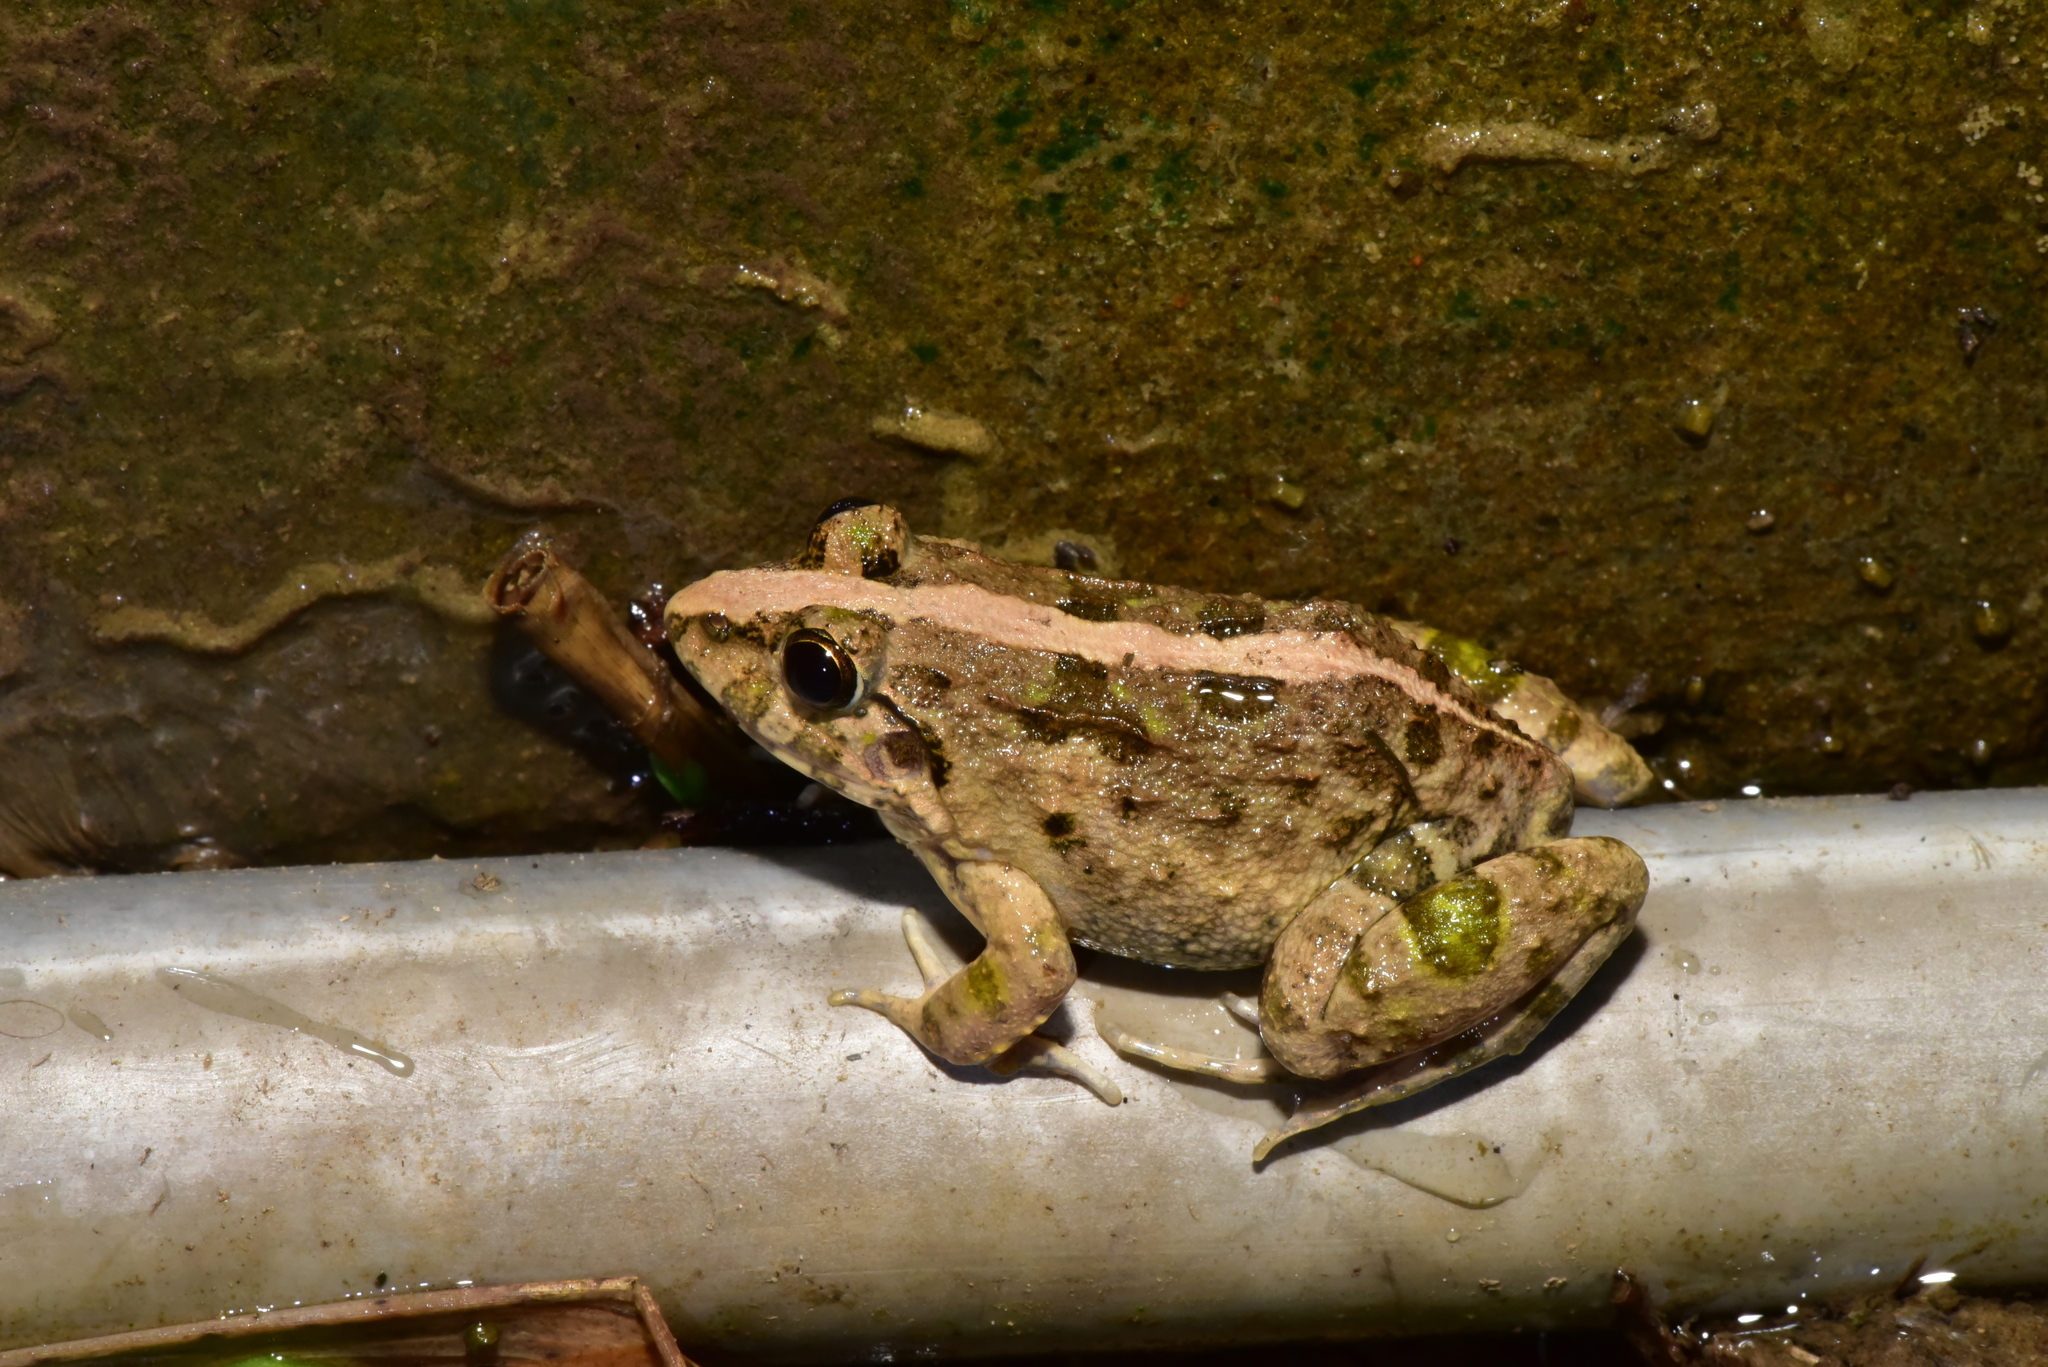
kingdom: Animalia
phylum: Chordata
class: Amphibia
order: Anura
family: Dicroglossidae
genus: Fejervarya
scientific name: Fejervarya limnocharis
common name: Asian grass frog/common pond frog/field frog/grass frog/indian rice frog
